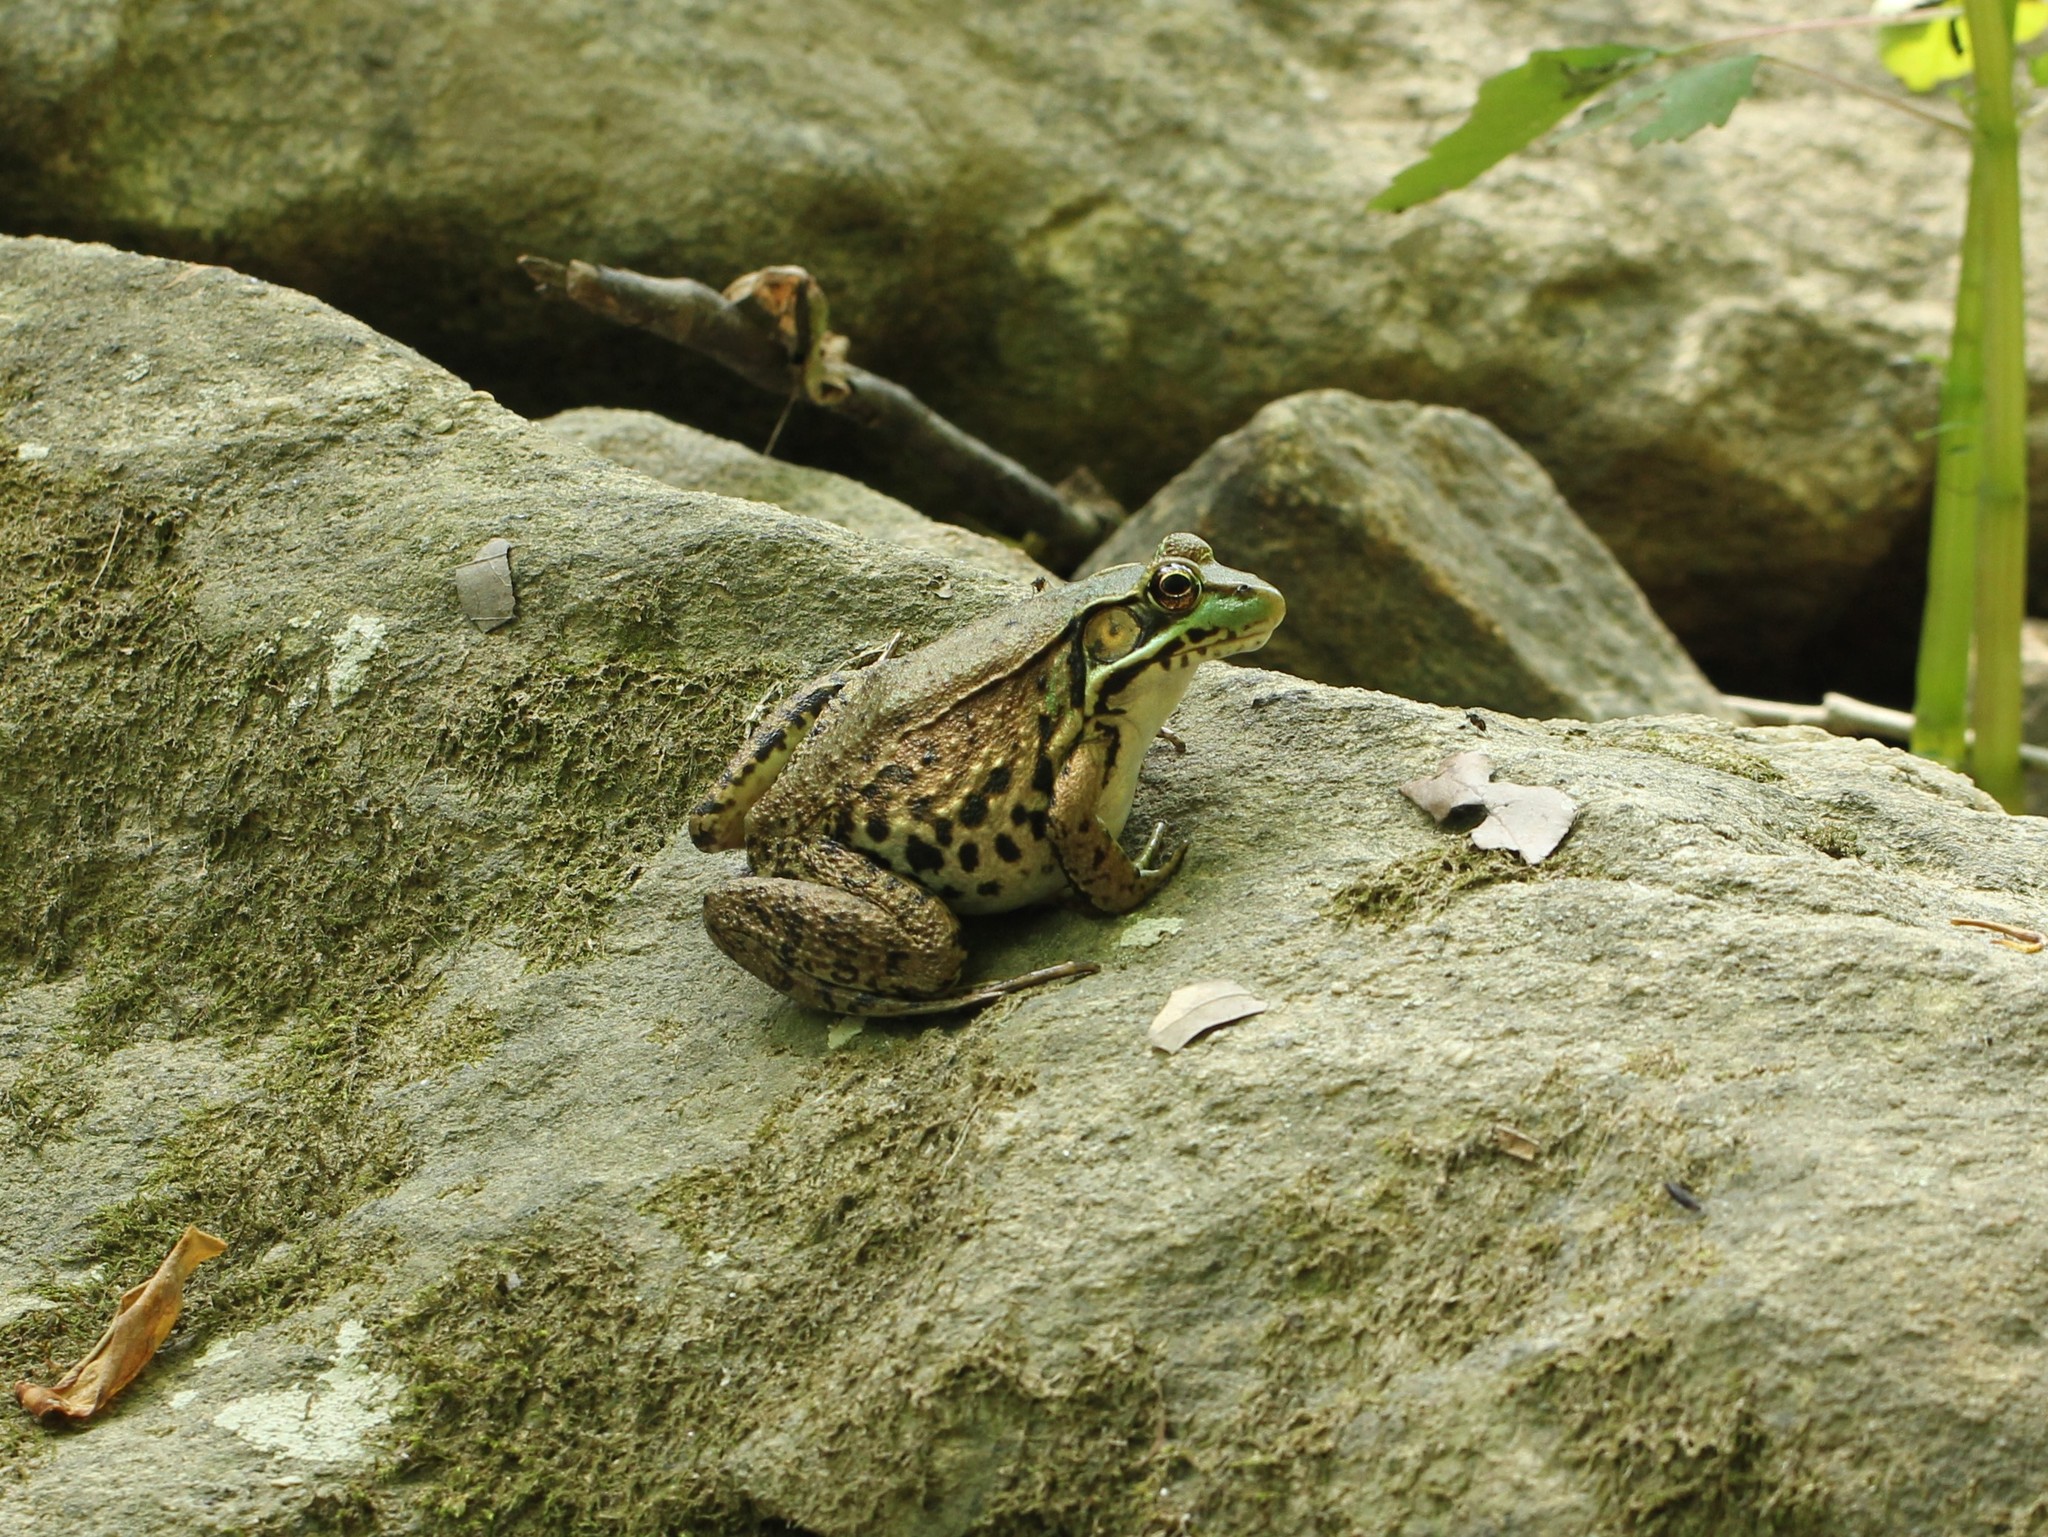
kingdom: Animalia
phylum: Chordata
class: Amphibia
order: Anura
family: Ranidae
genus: Lithobates
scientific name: Lithobates clamitans
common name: Green frog
